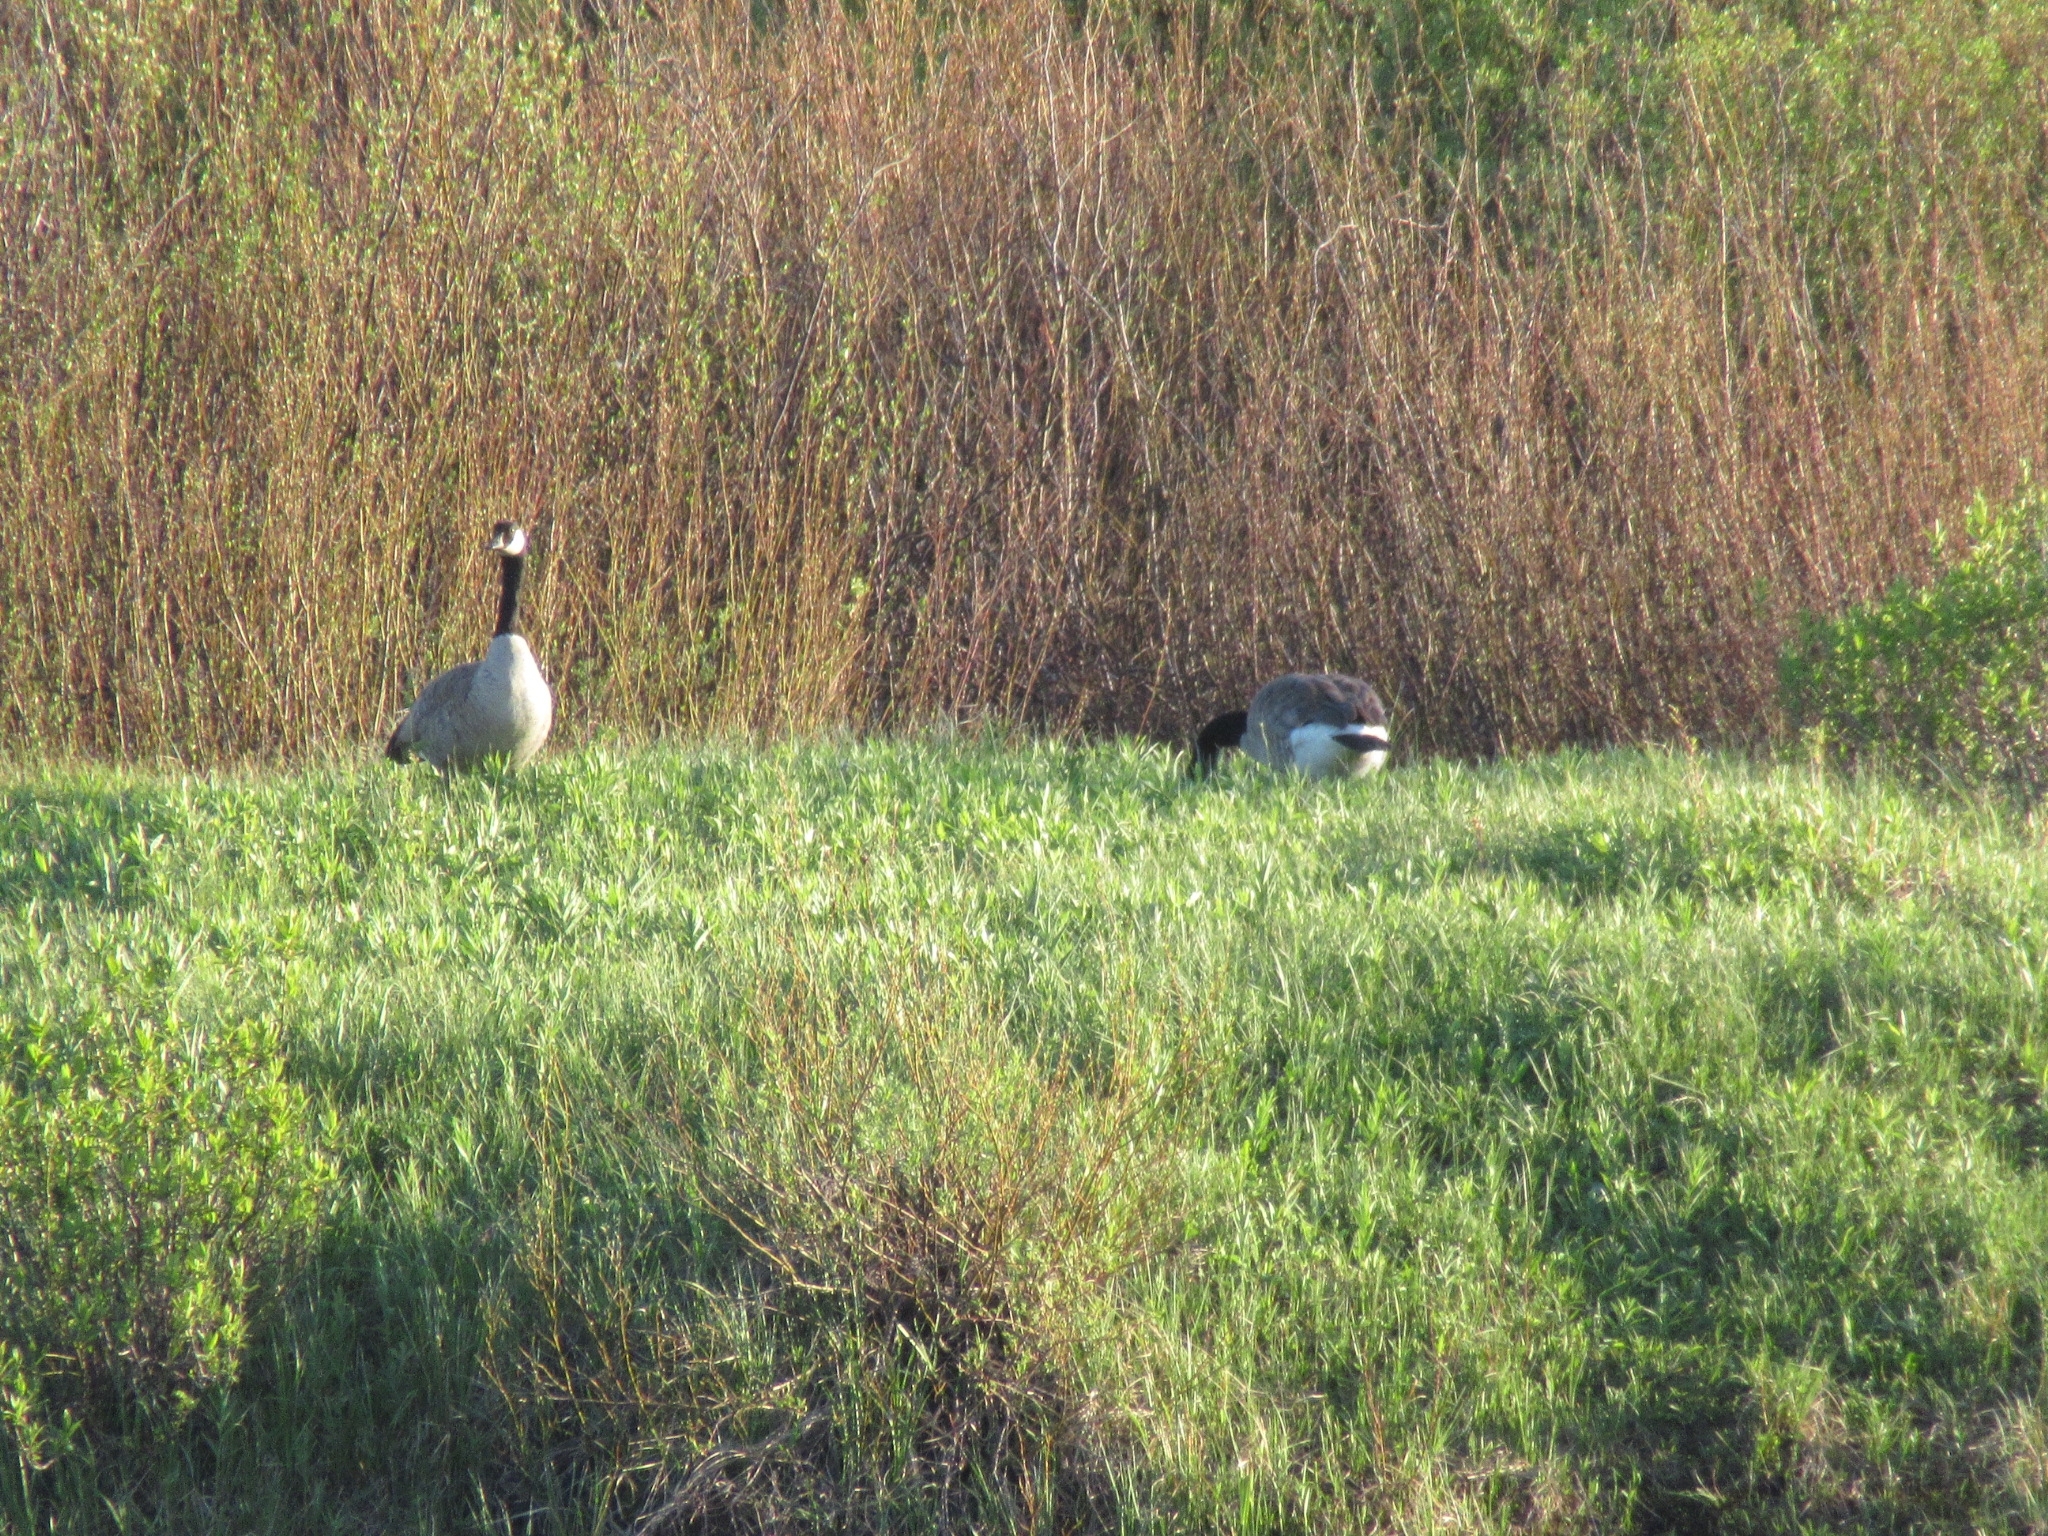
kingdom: Animalia
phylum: Chordata
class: Aves
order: Anseriformes
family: Anatidae
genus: Branta
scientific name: Branta canadensis
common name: Canada goose
